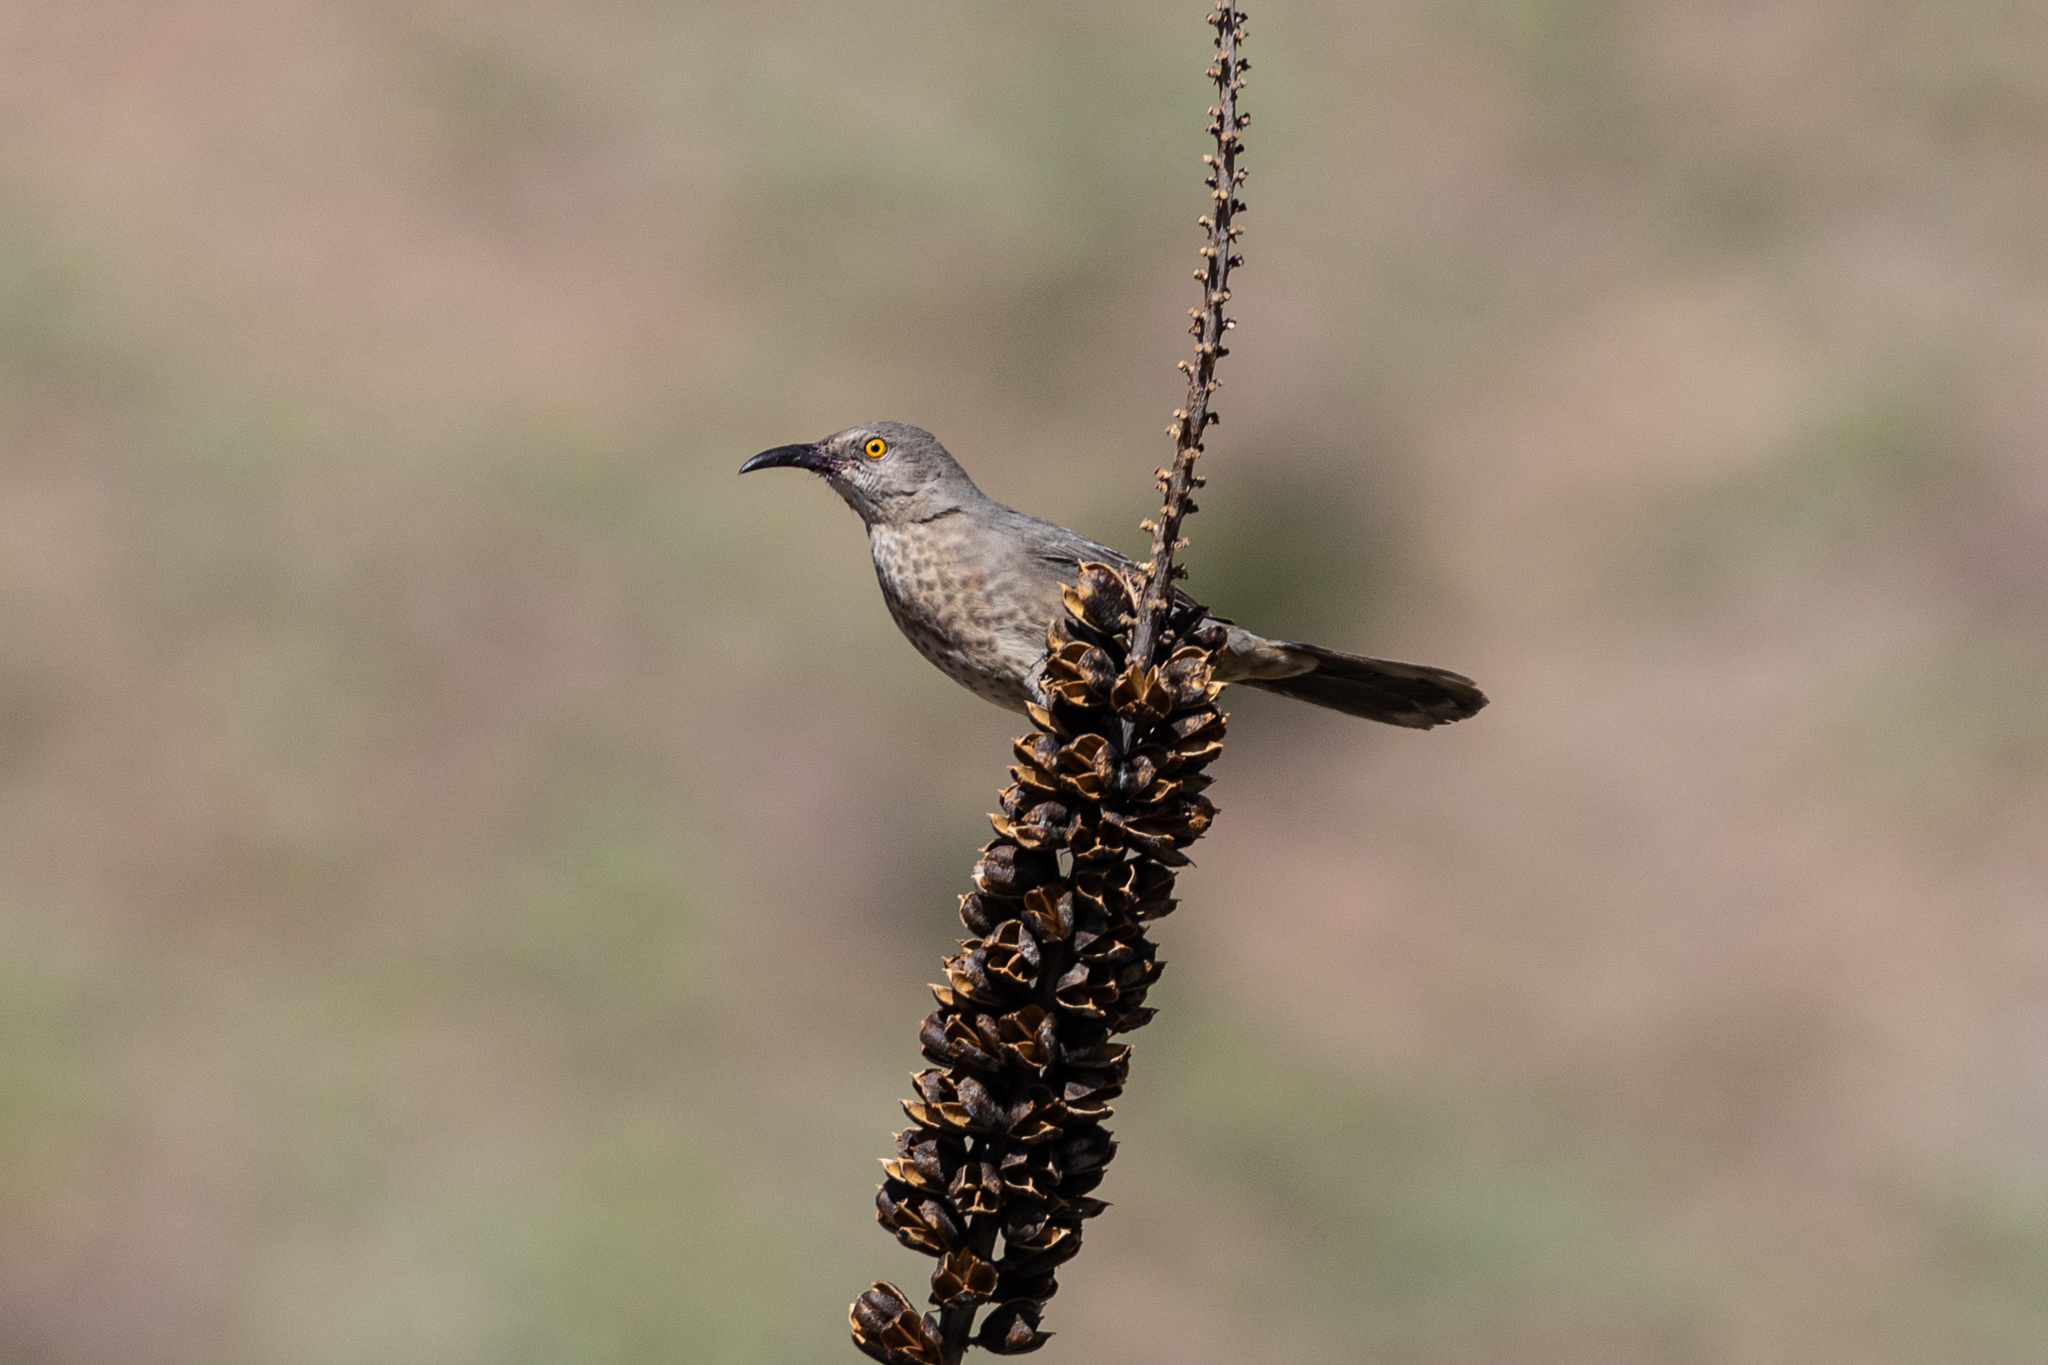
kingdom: Animalia
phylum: Chordata
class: Aves
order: Passeriformes
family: Mimidae
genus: Toxostoma
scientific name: Toxostoma curvirostre
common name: Curve-billed thrasher
